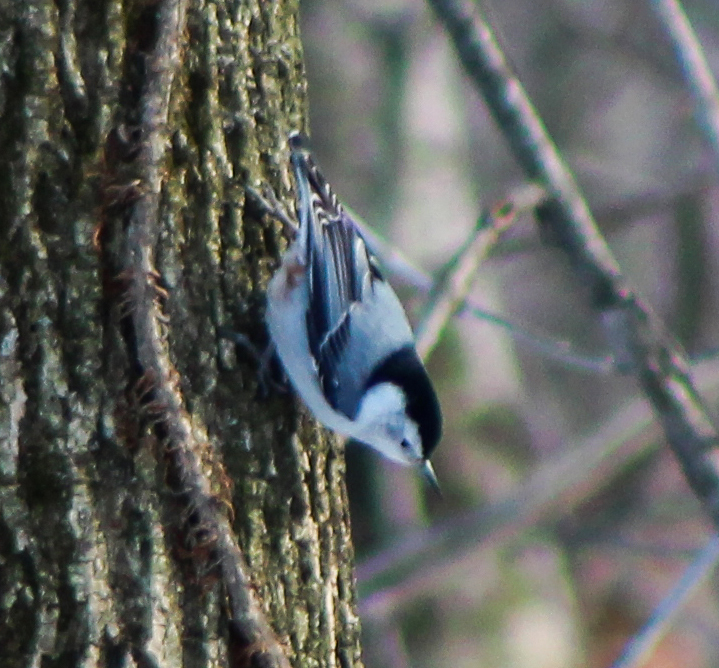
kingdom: Animalia
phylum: Chordata
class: Aves
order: Passeriformes
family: Sittidae
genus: Sitta
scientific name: Sitta carolinensis
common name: White-breasted nuthatch
